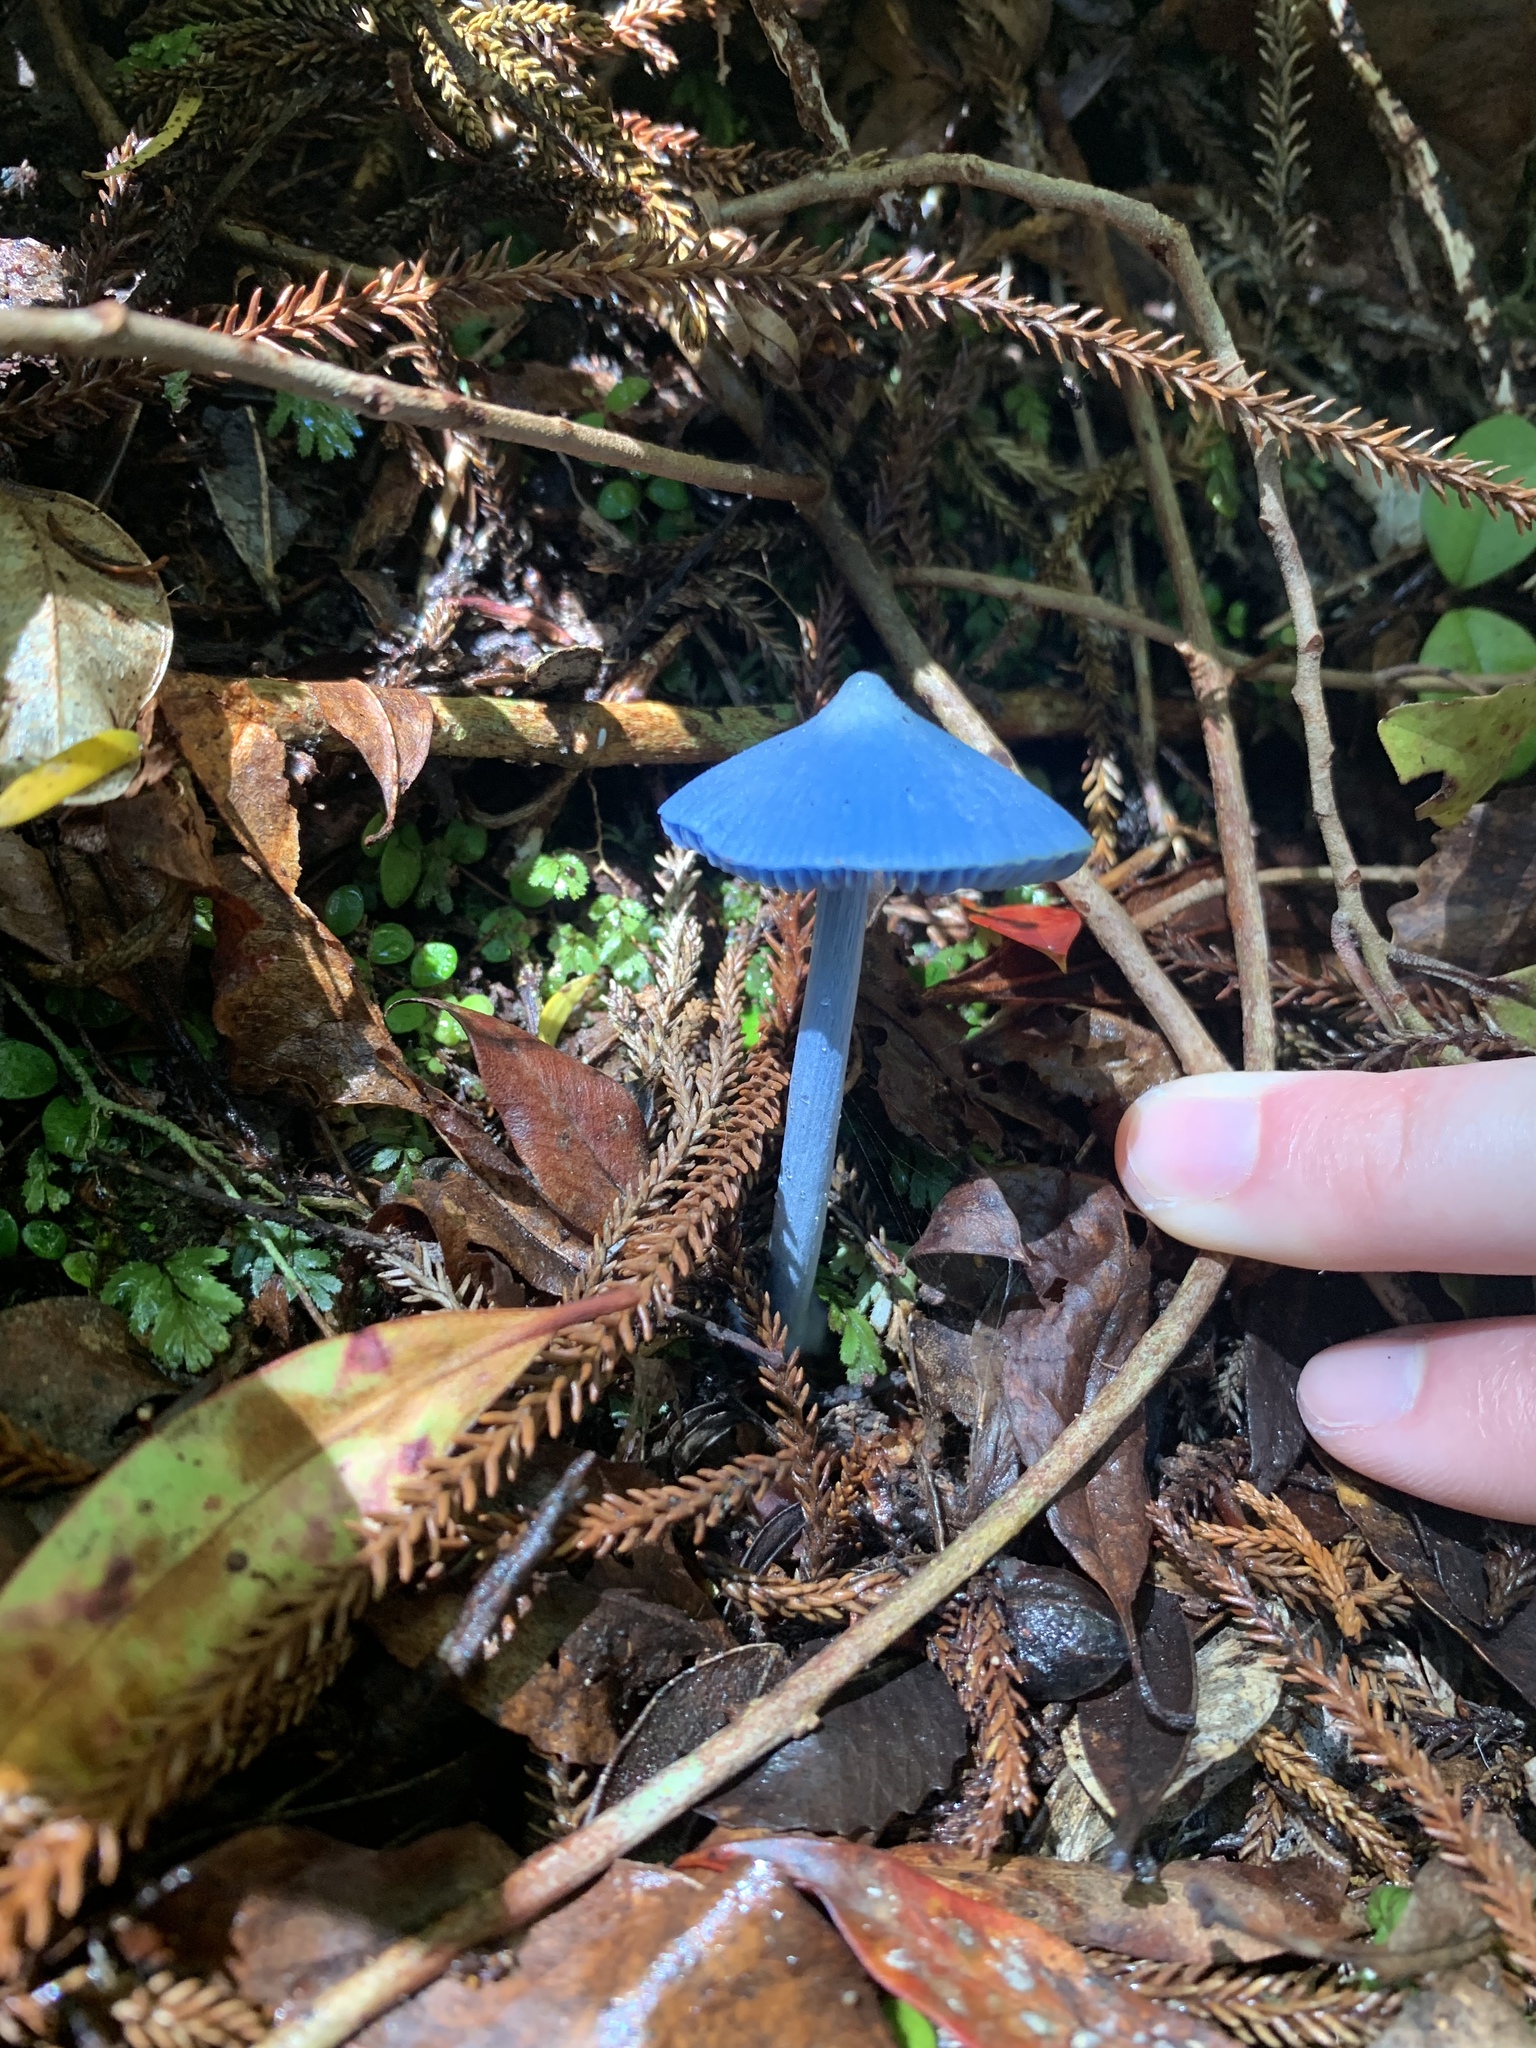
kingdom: Fungi
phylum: Basidiomycota
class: Agaricomycetes
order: Agaricales
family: Entolomataceae
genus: Entoloma
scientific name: Entoloma hochstetteri
